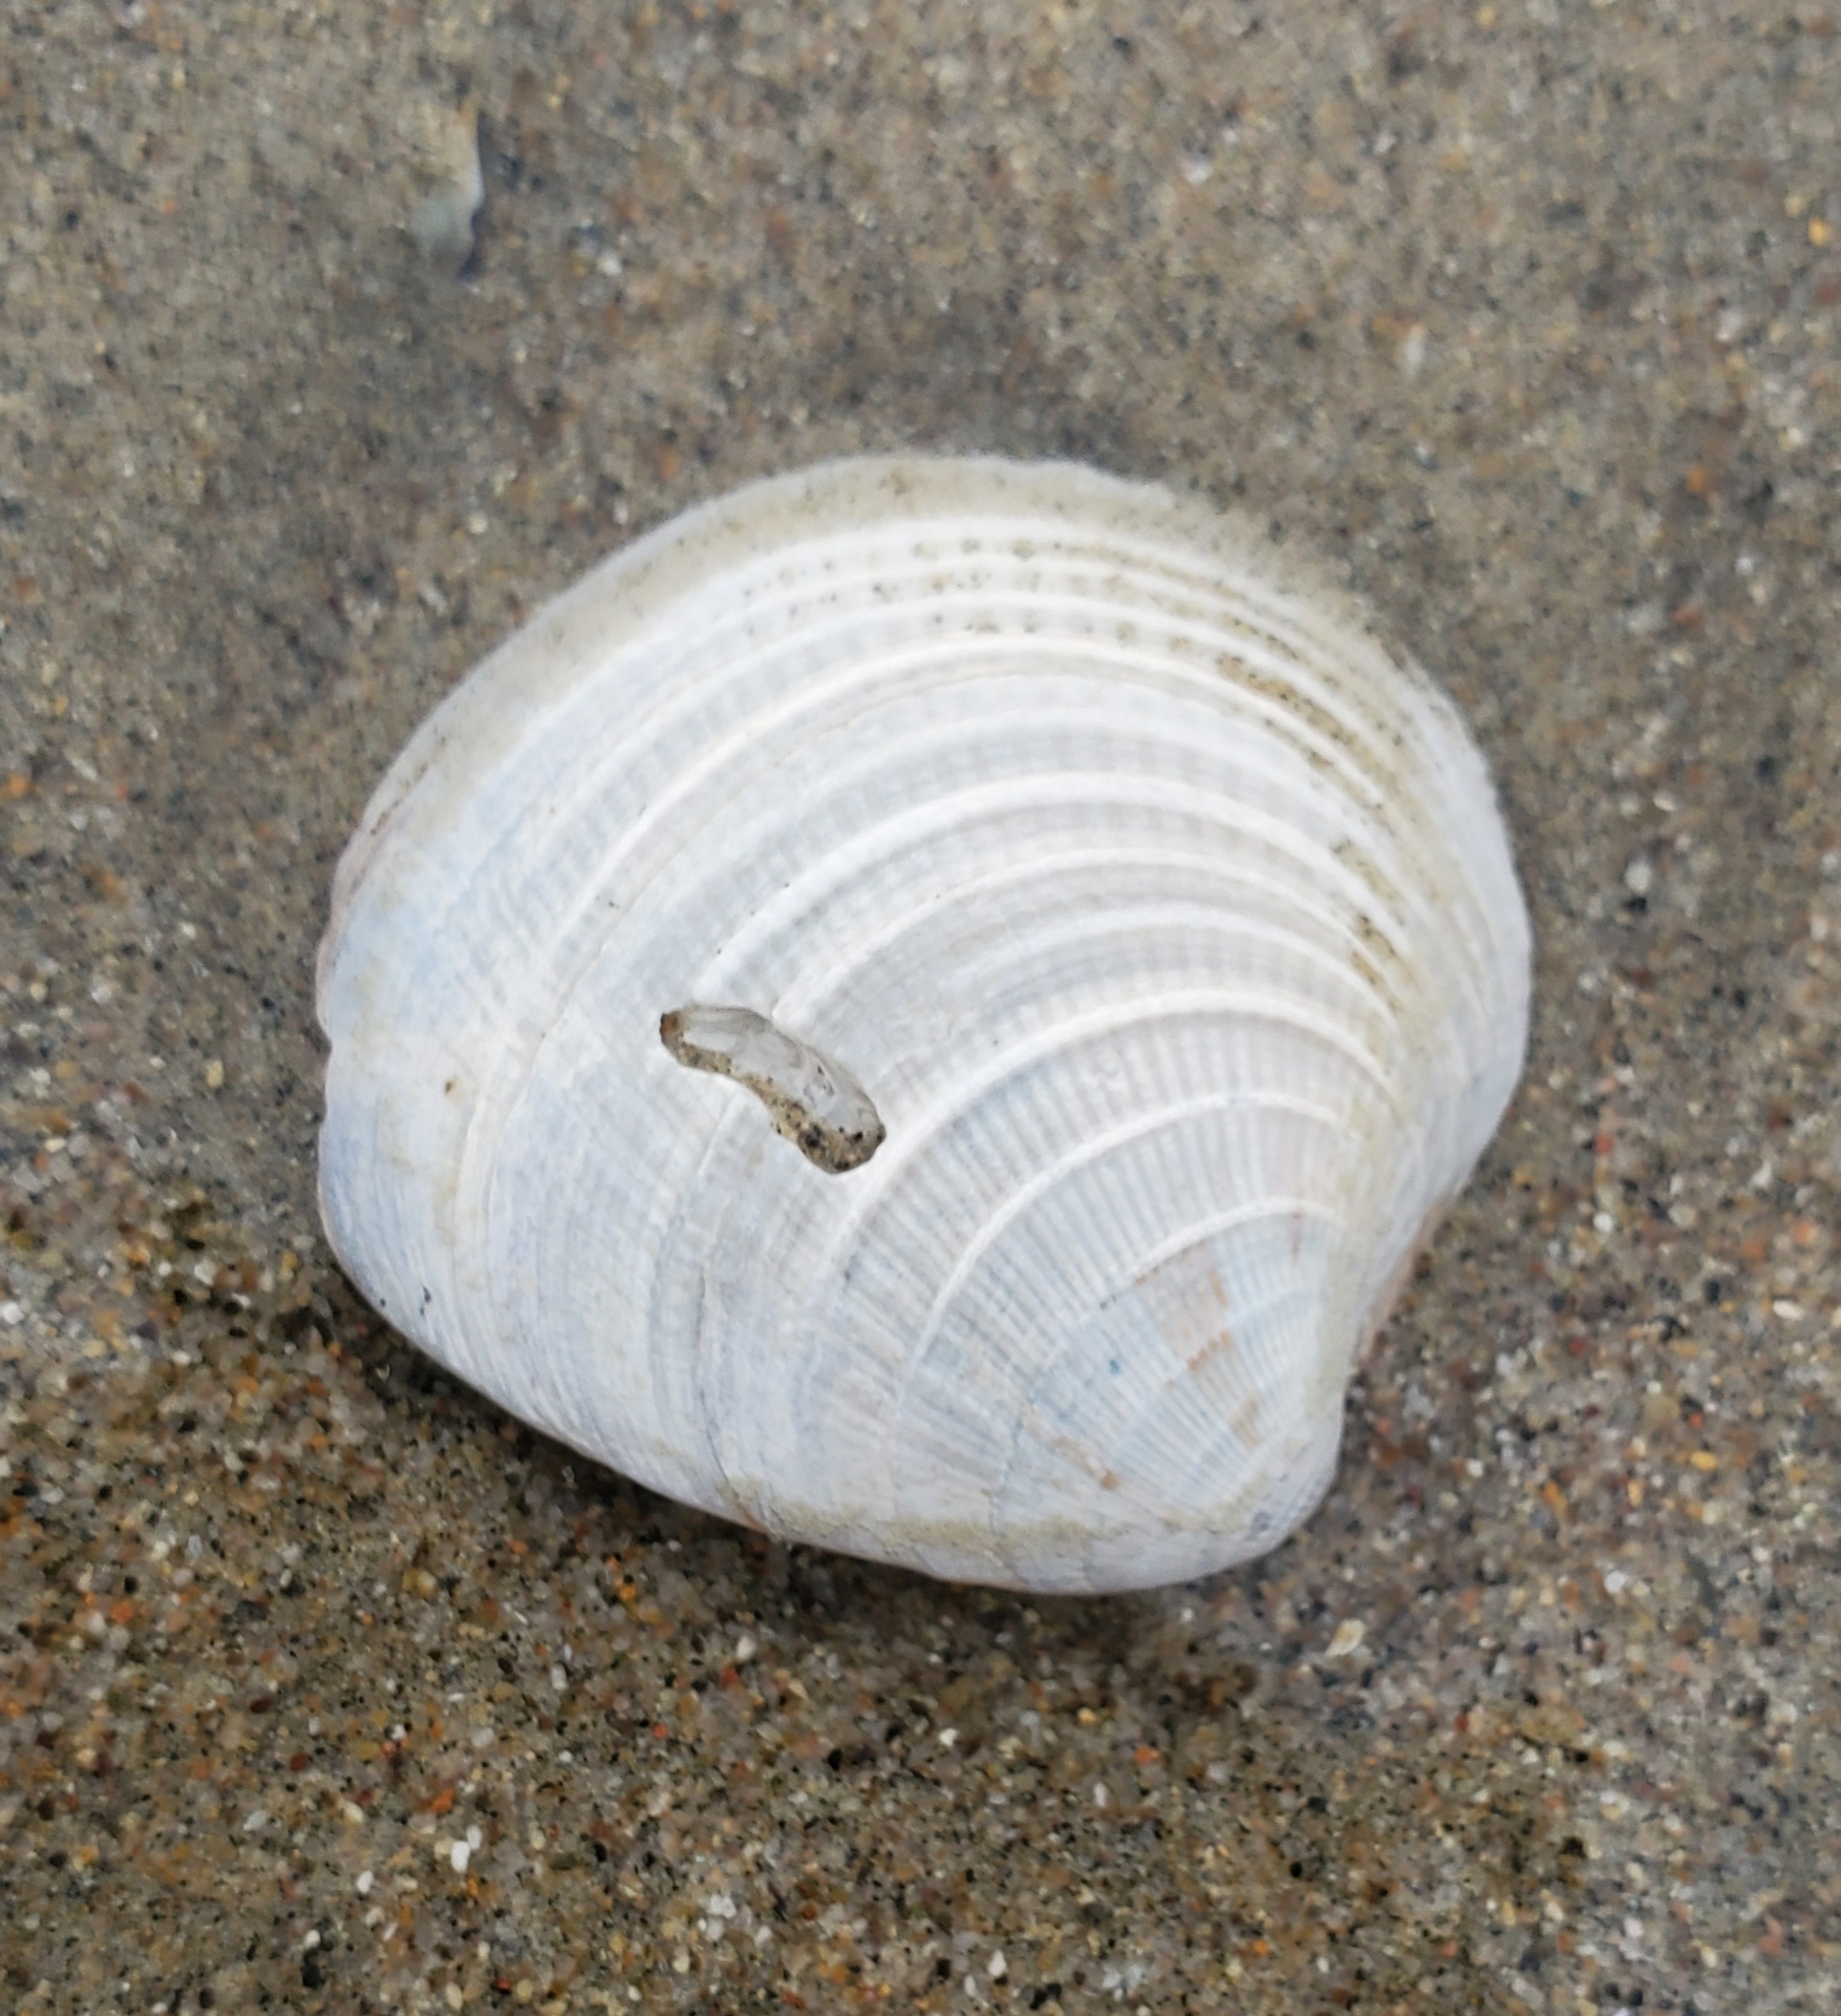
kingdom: Animalia
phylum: Mollusca
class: Bivalvia
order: Venerida
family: Veneridae
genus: Chione
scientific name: Chione californiensis
